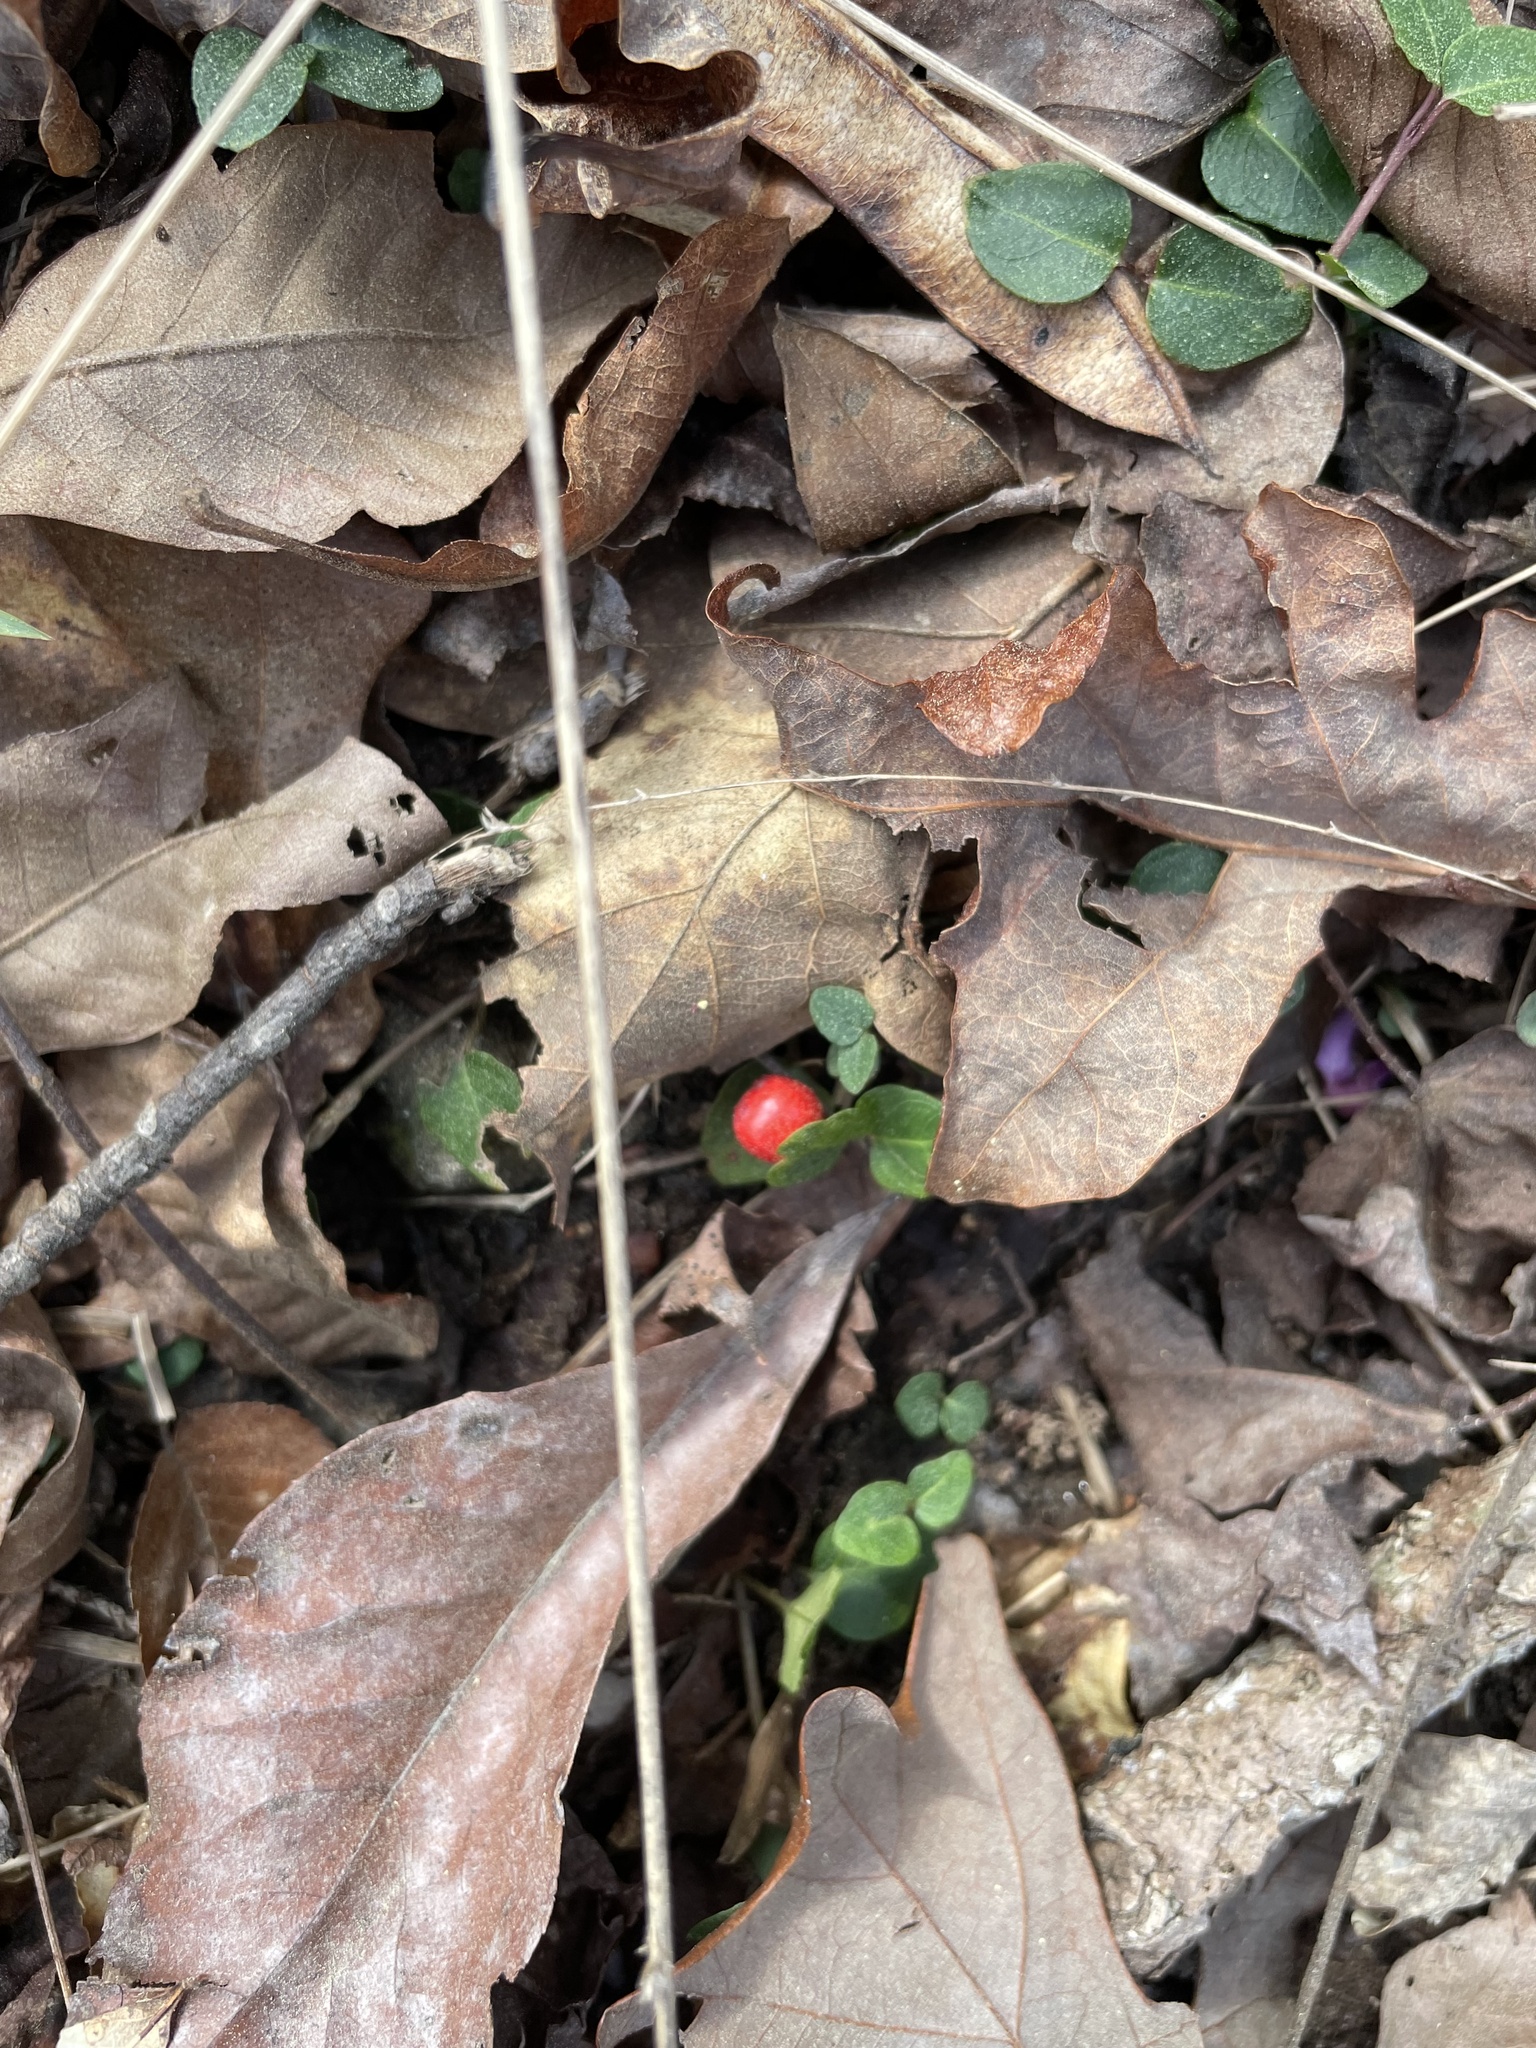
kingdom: Plantae
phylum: Tracheophyta
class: Magnoliopsida
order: Gentianales
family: Rubiaceae
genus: Mitchella
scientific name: Mitchella repens
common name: Partridge-berry
